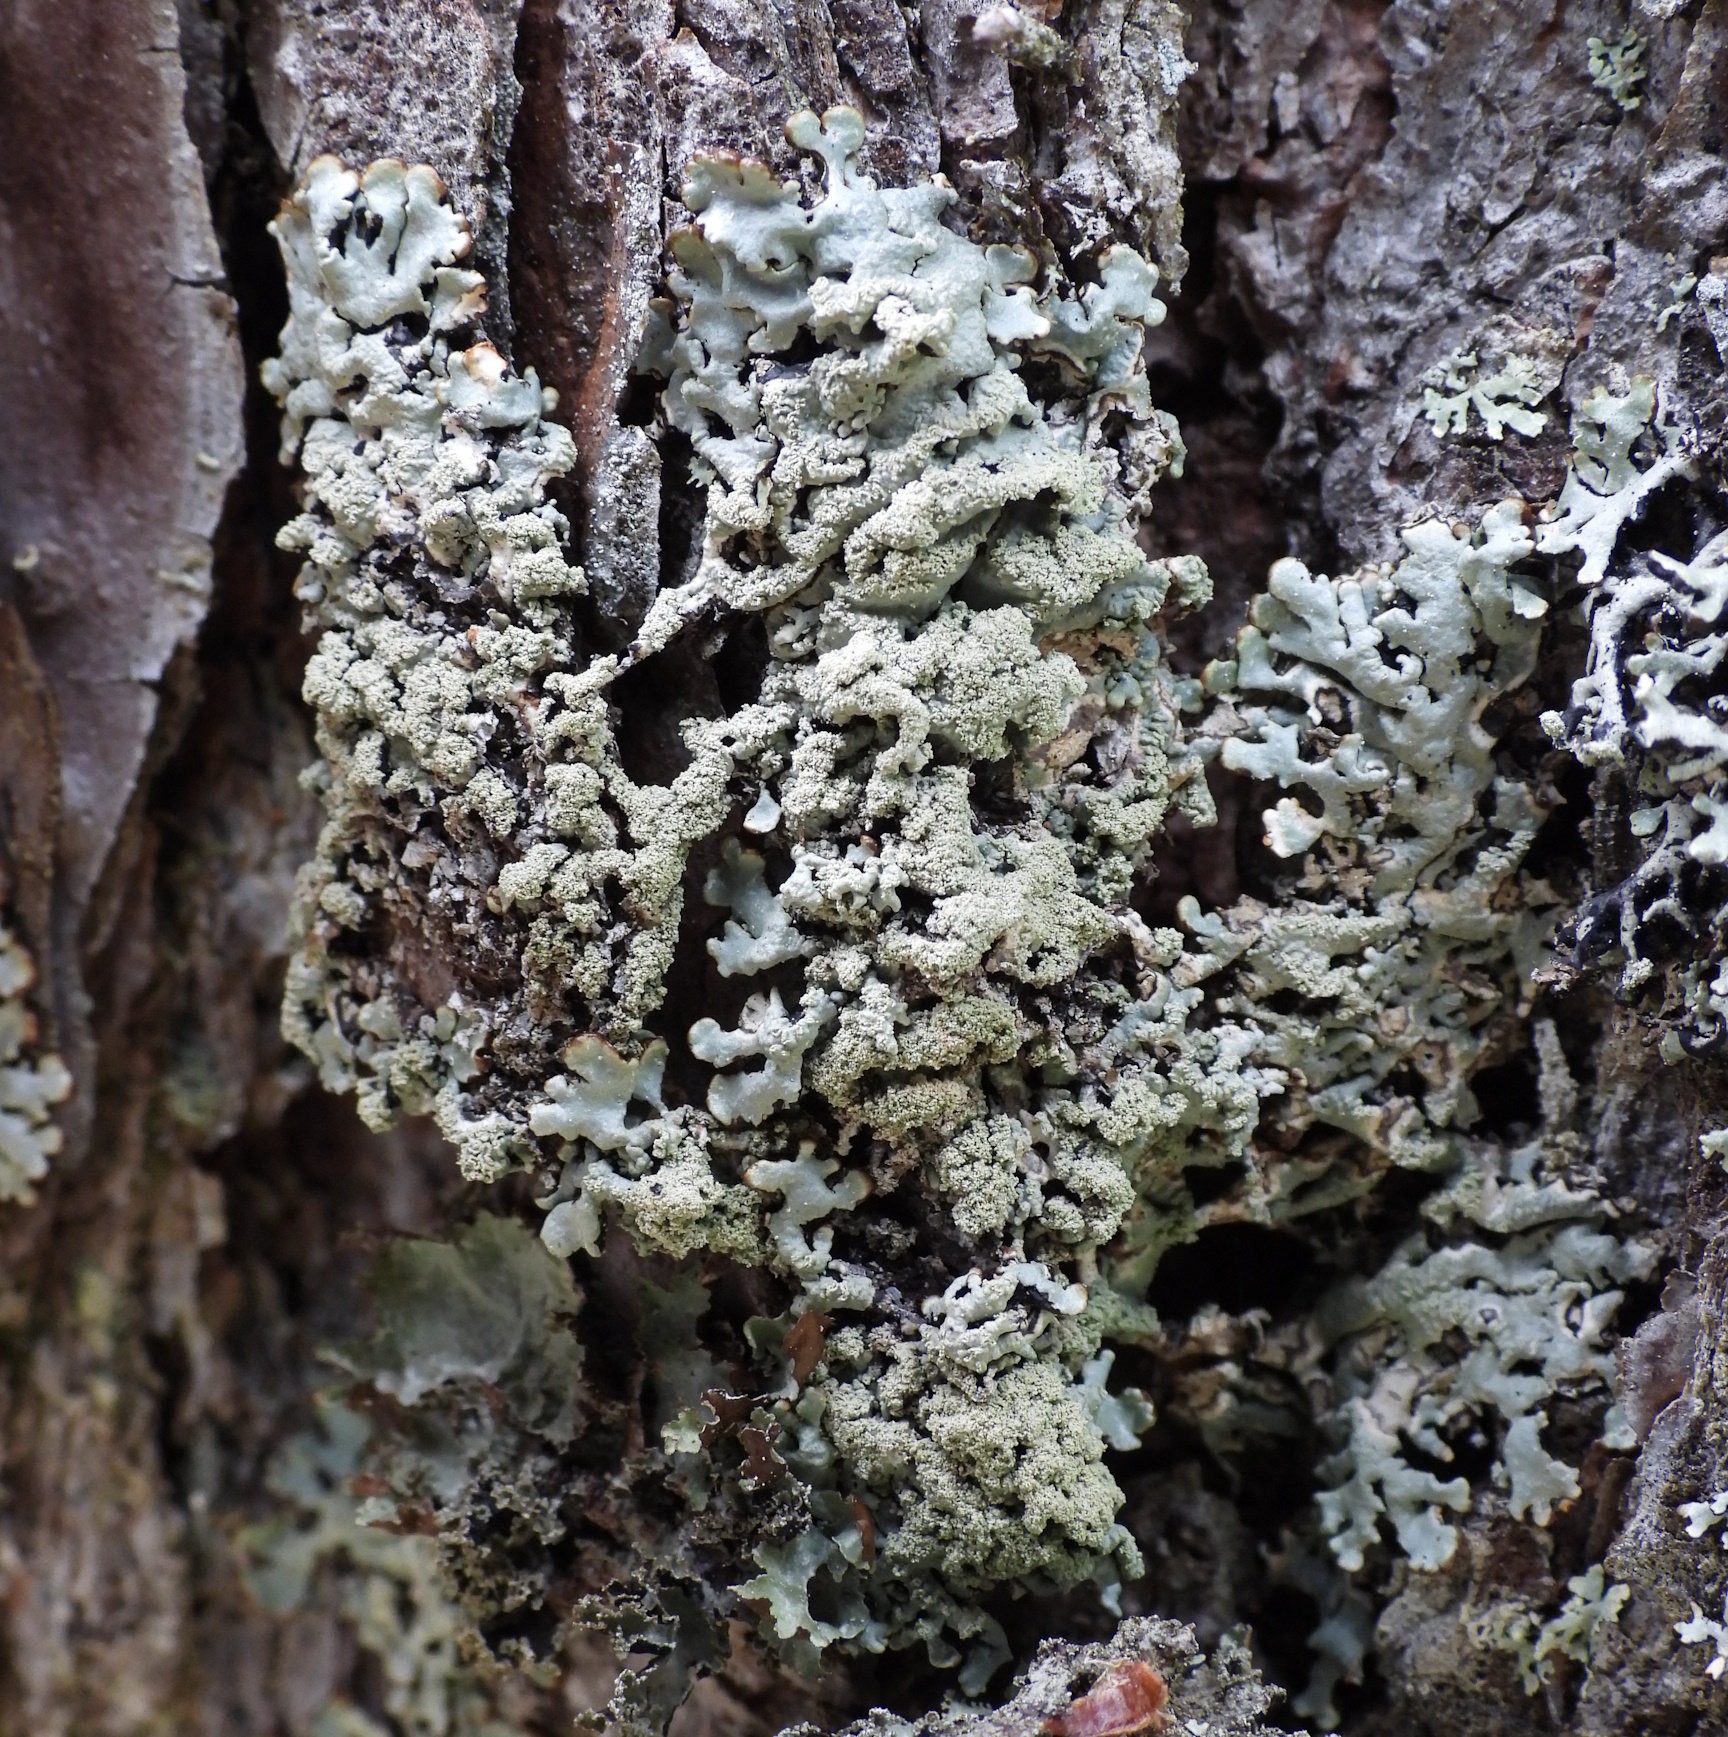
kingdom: Fungi
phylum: Ascomycota
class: Lecanoromycetes
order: Lecanorales
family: Parmeliaceae
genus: Hypogymnia
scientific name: Hypogymnia farinacea
